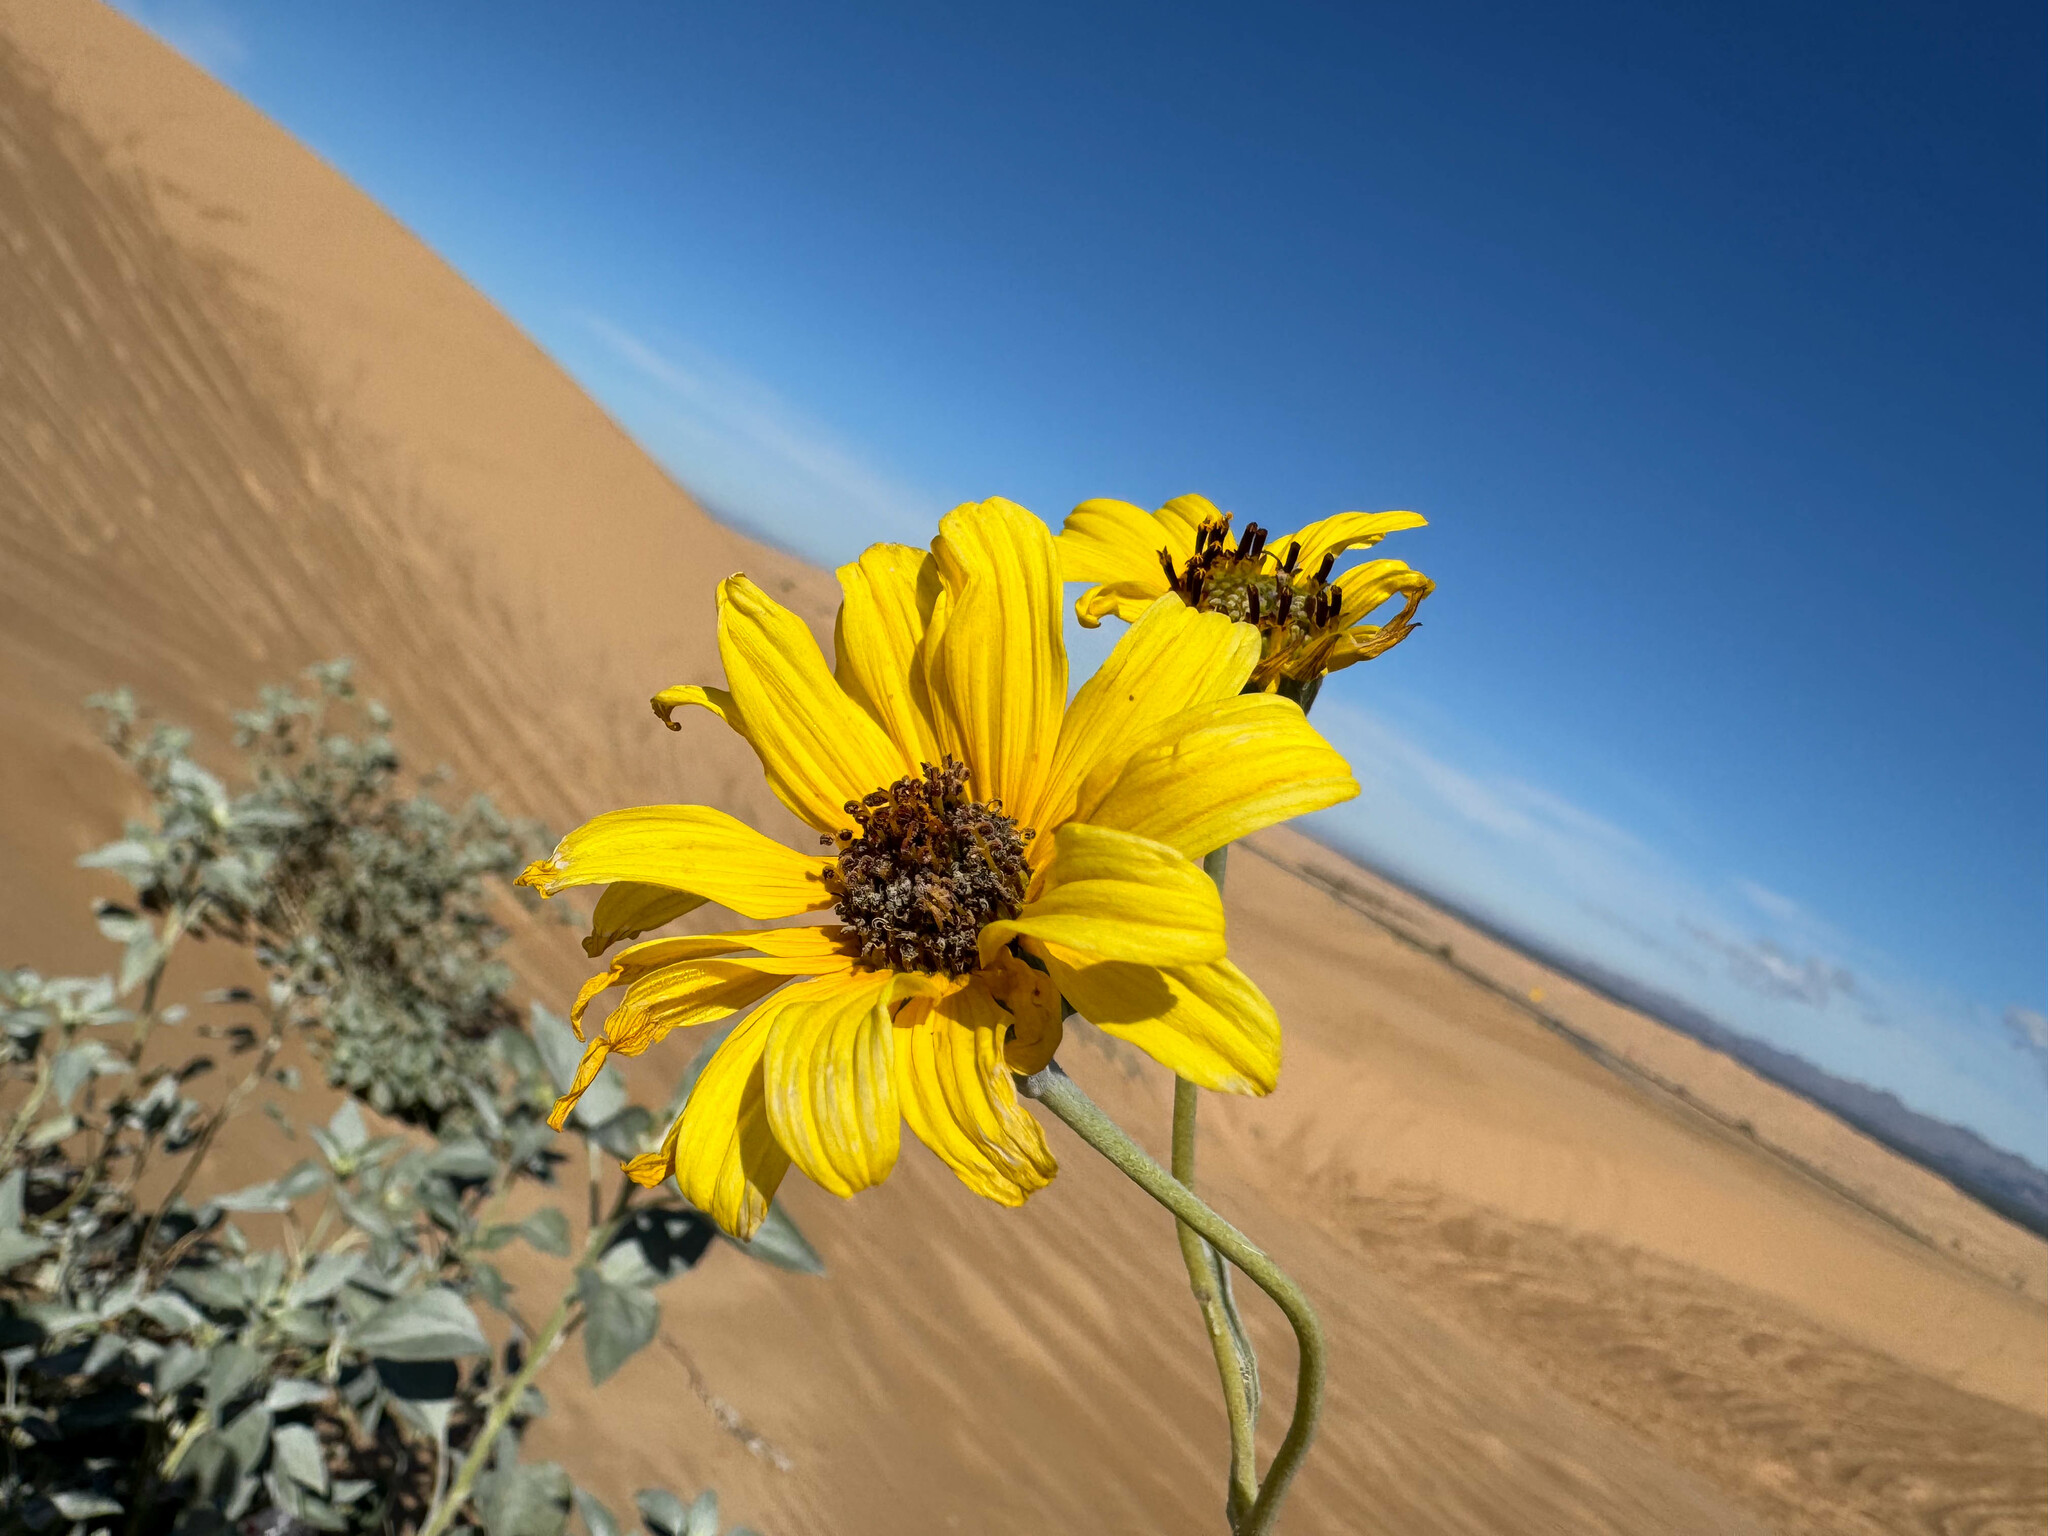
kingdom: Plantae
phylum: Tracheophyta
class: Magnoliopsida
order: Asterales
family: Asteraceae
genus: Helianthus
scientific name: Helianthus niveus
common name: Snowy sunflower
